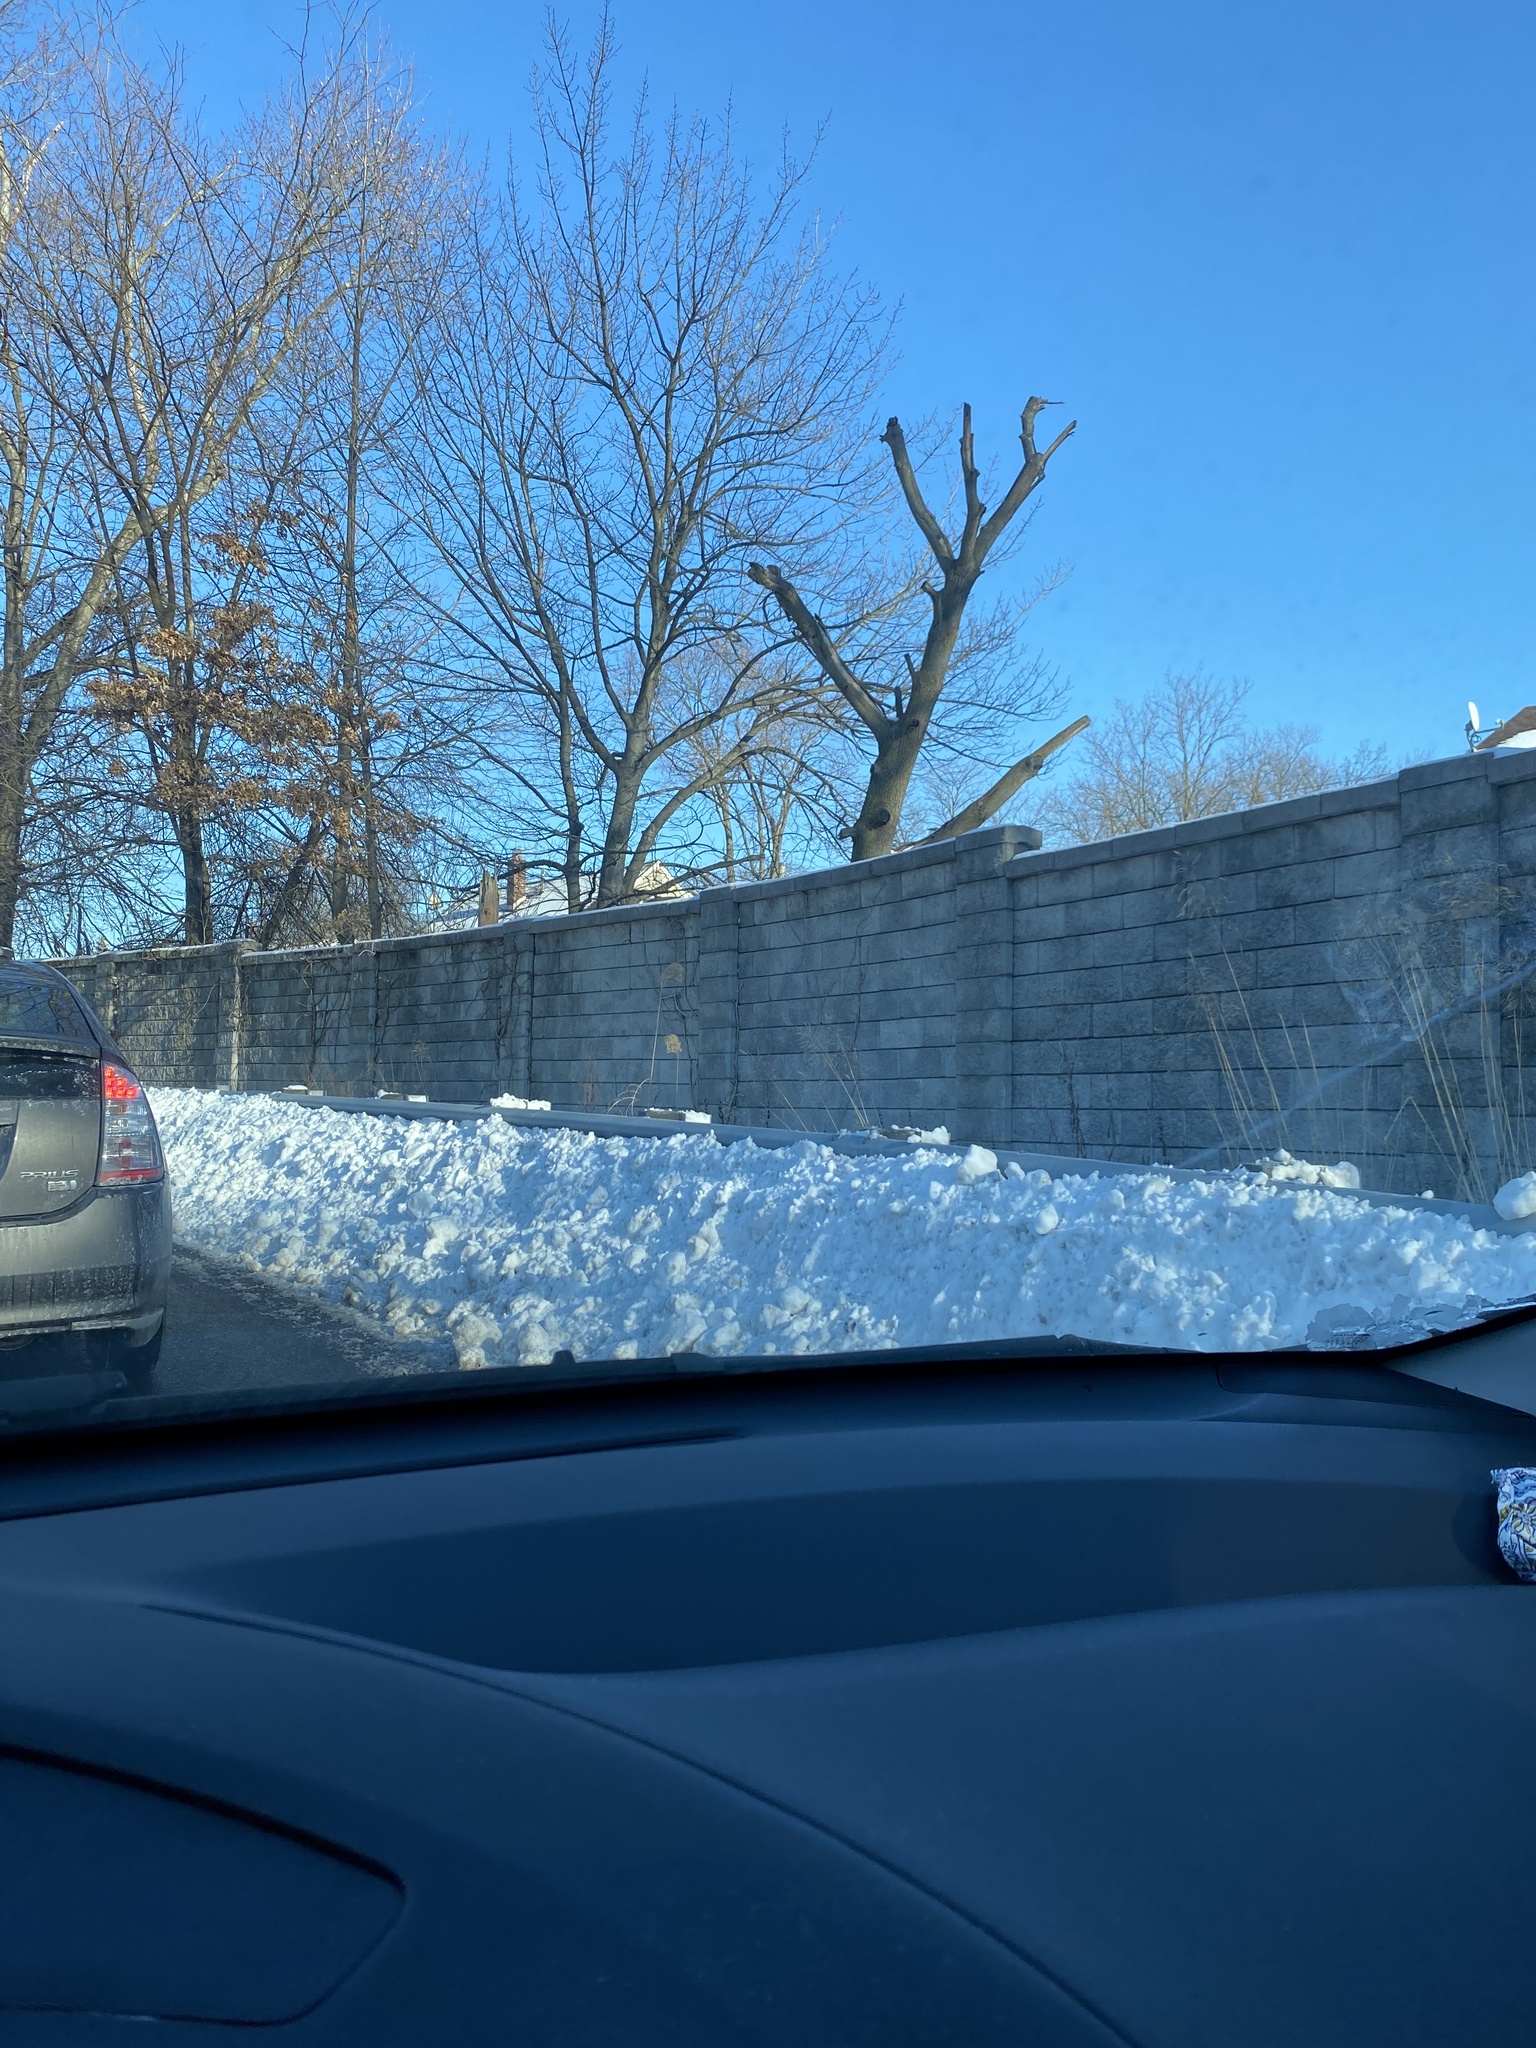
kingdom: Plantae
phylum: Tracheophyta
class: Liliopsida
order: Poales
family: Poaceae
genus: Miscanthus
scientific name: Miscanthus sinensis
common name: Chinese silvergrass
